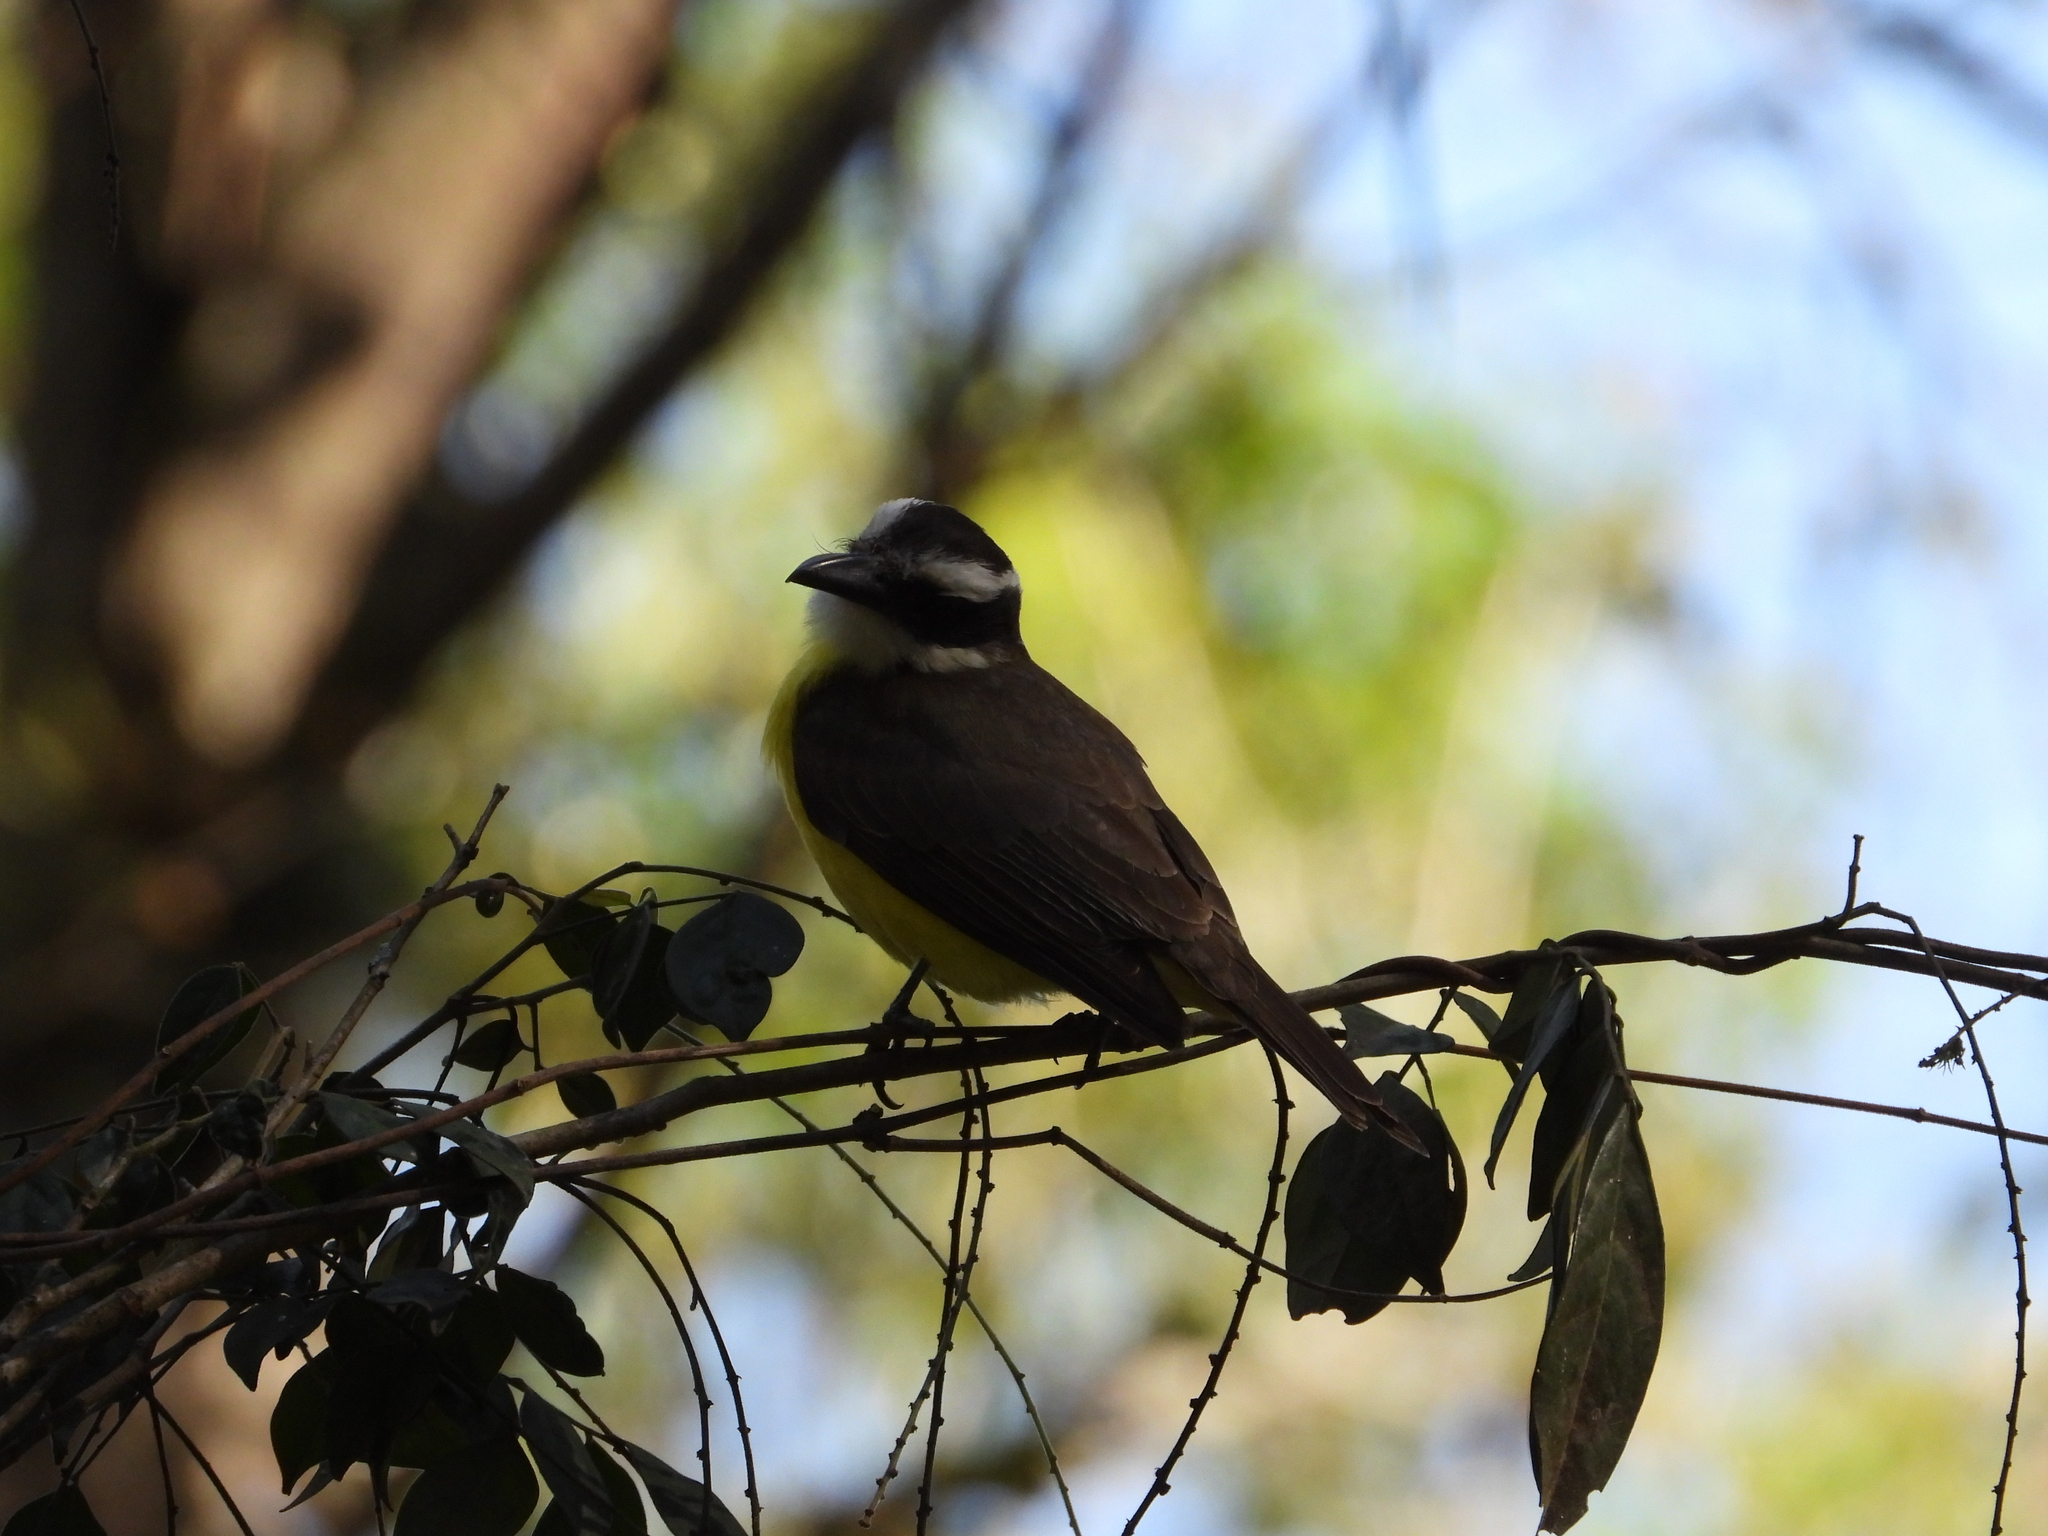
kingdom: Animalia
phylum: Chordata
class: Aves
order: Passeriformes
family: Tyrannidae
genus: Pitangus
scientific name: Pitangus sulphuratus
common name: Great kiskadee
